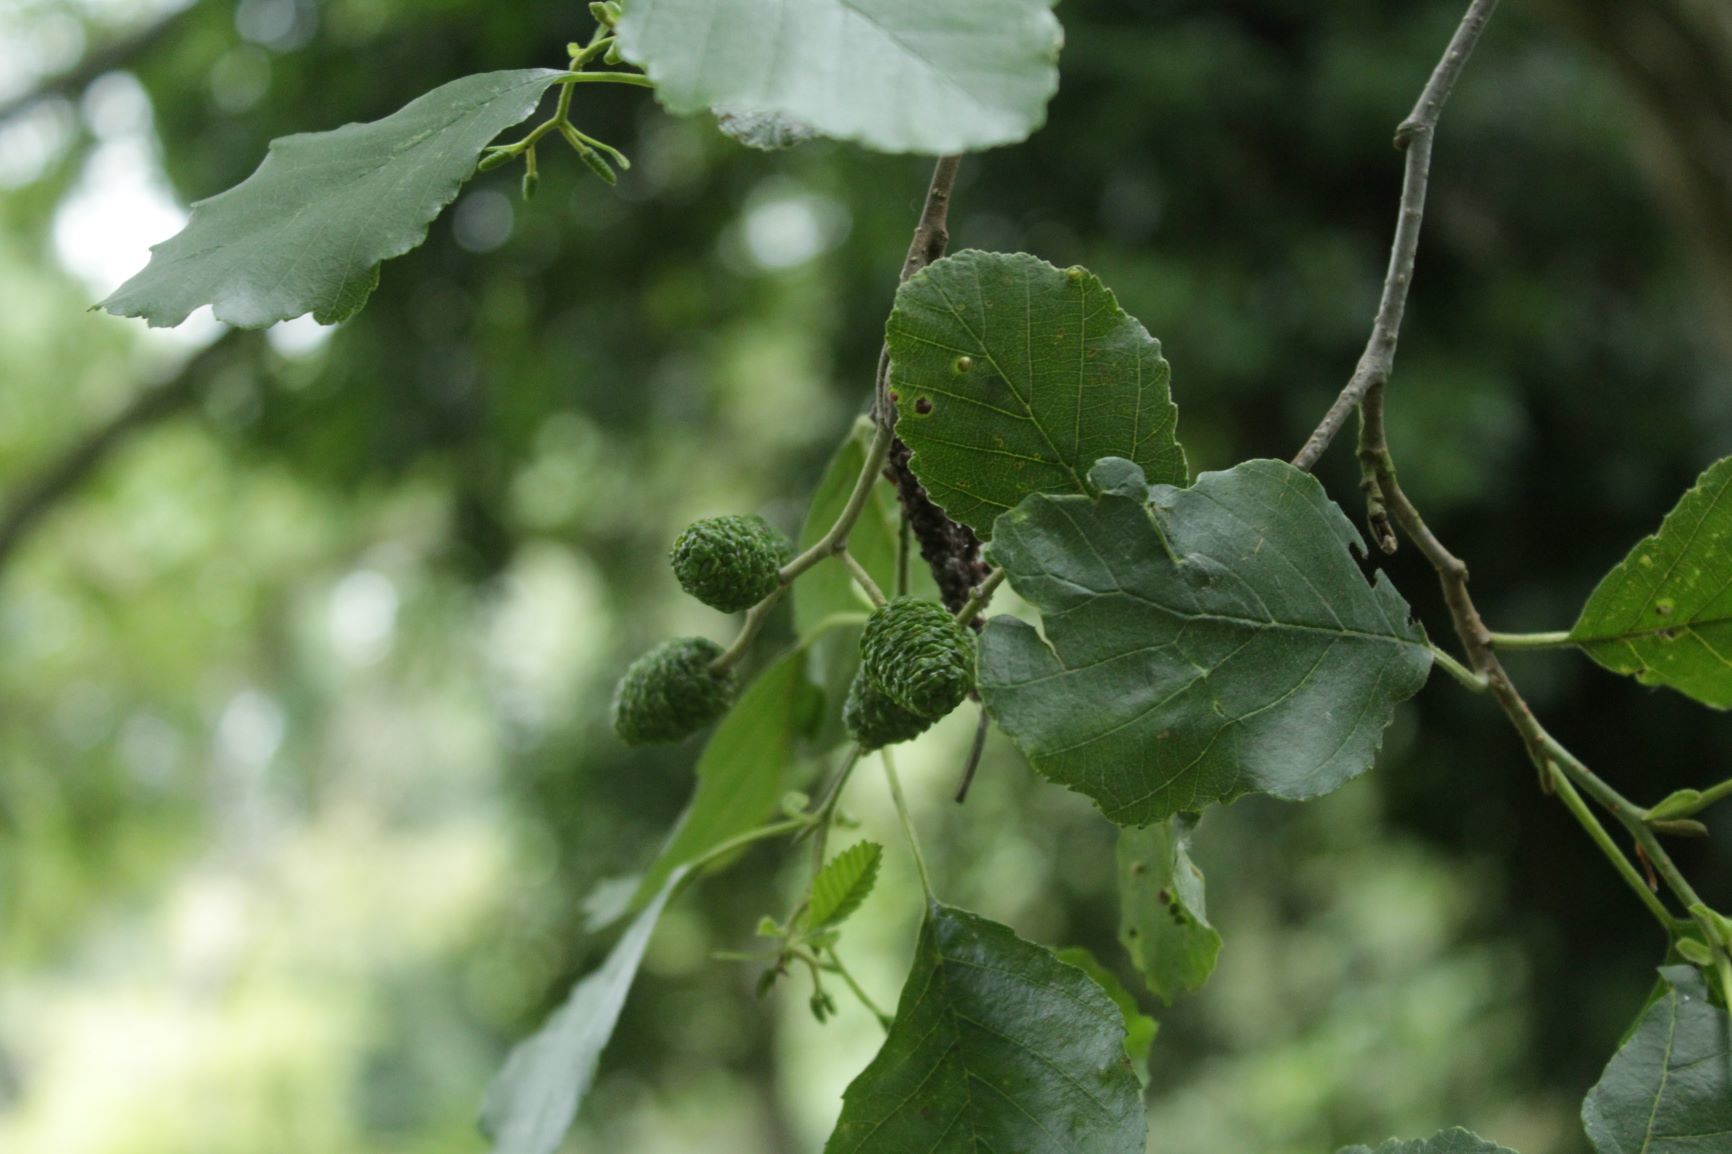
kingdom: Plantae
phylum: Tracheophyta
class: Magnoliopsida
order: Fagales
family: Betulaceae
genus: Alnus
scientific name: Alnus glutinosa
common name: Black alder
